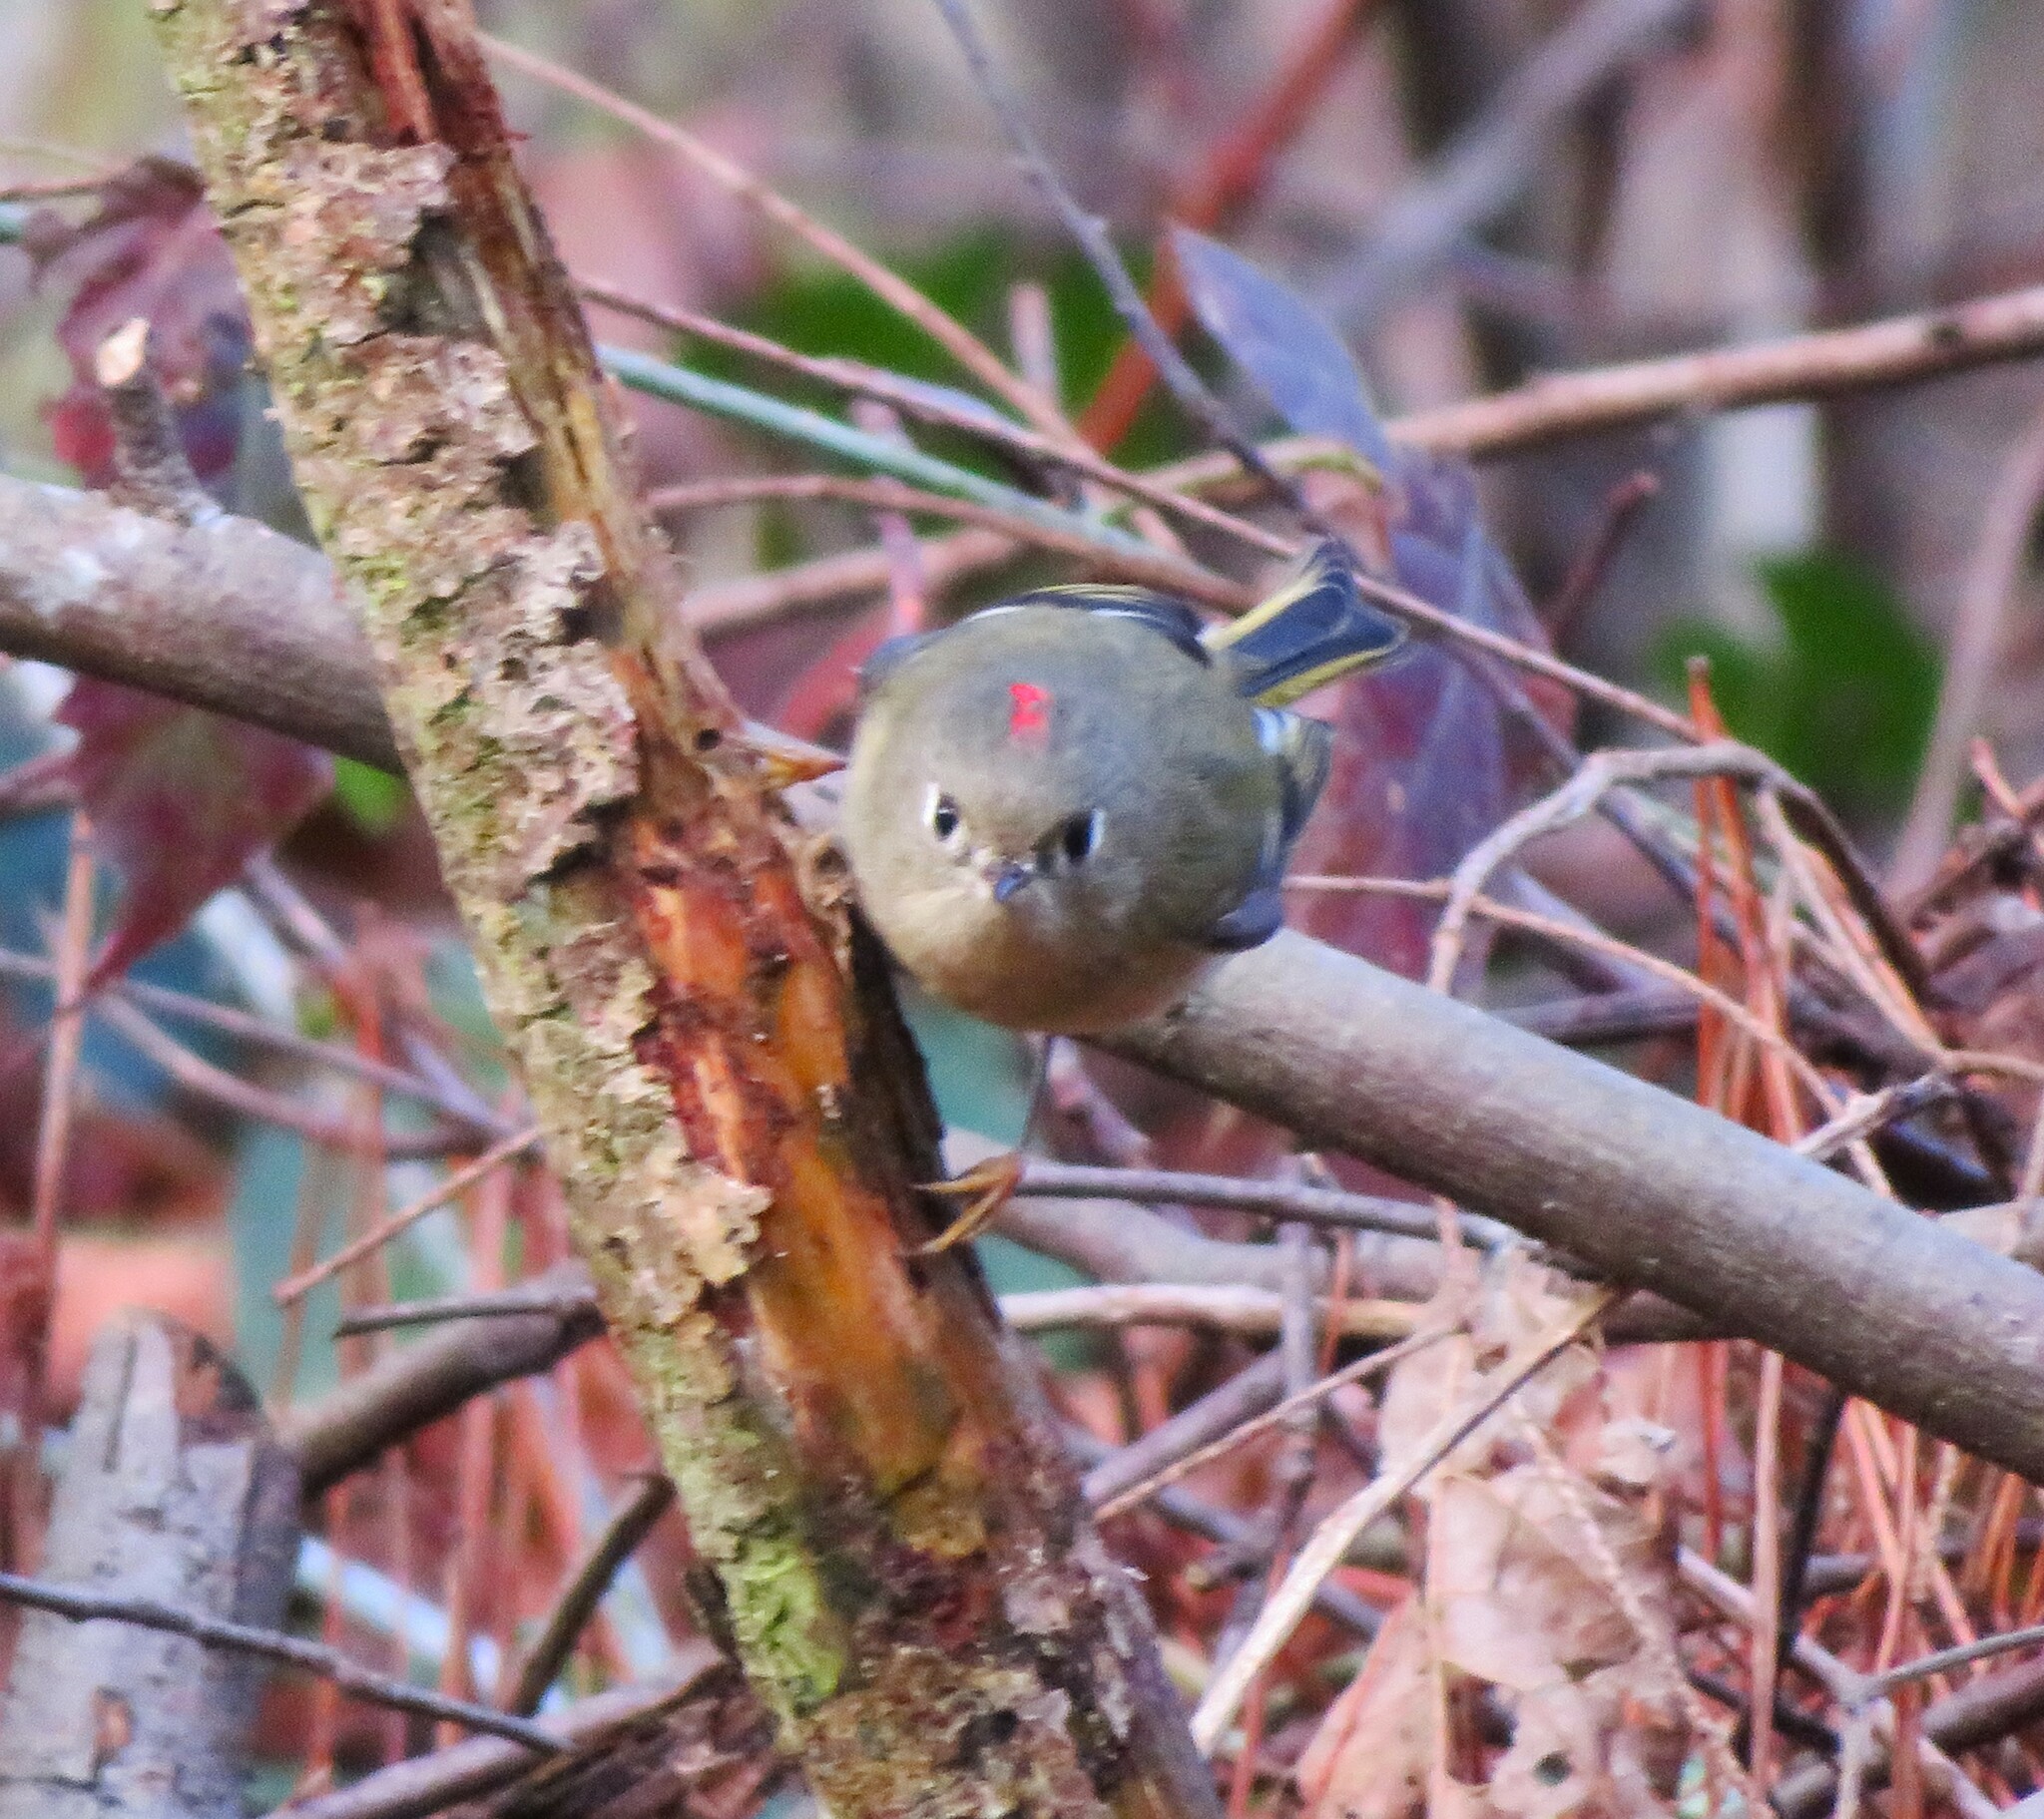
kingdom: Animalia
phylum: Chordata
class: Aves
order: Passeriformes
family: Regulidae
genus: Regulus
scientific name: Regulus calendula
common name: Ruby-crowned kinglet
